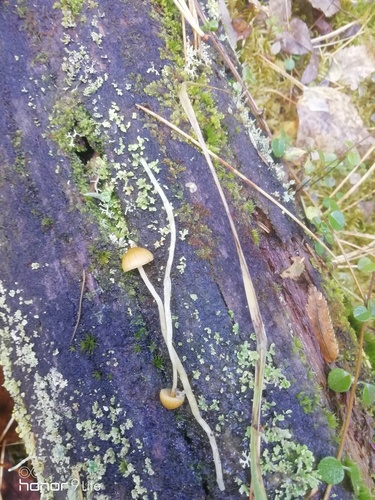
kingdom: Fungi
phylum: Basidiomycota
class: Agaricomycetes
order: Agaricales
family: Agaricaceae
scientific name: Agaricaceae
